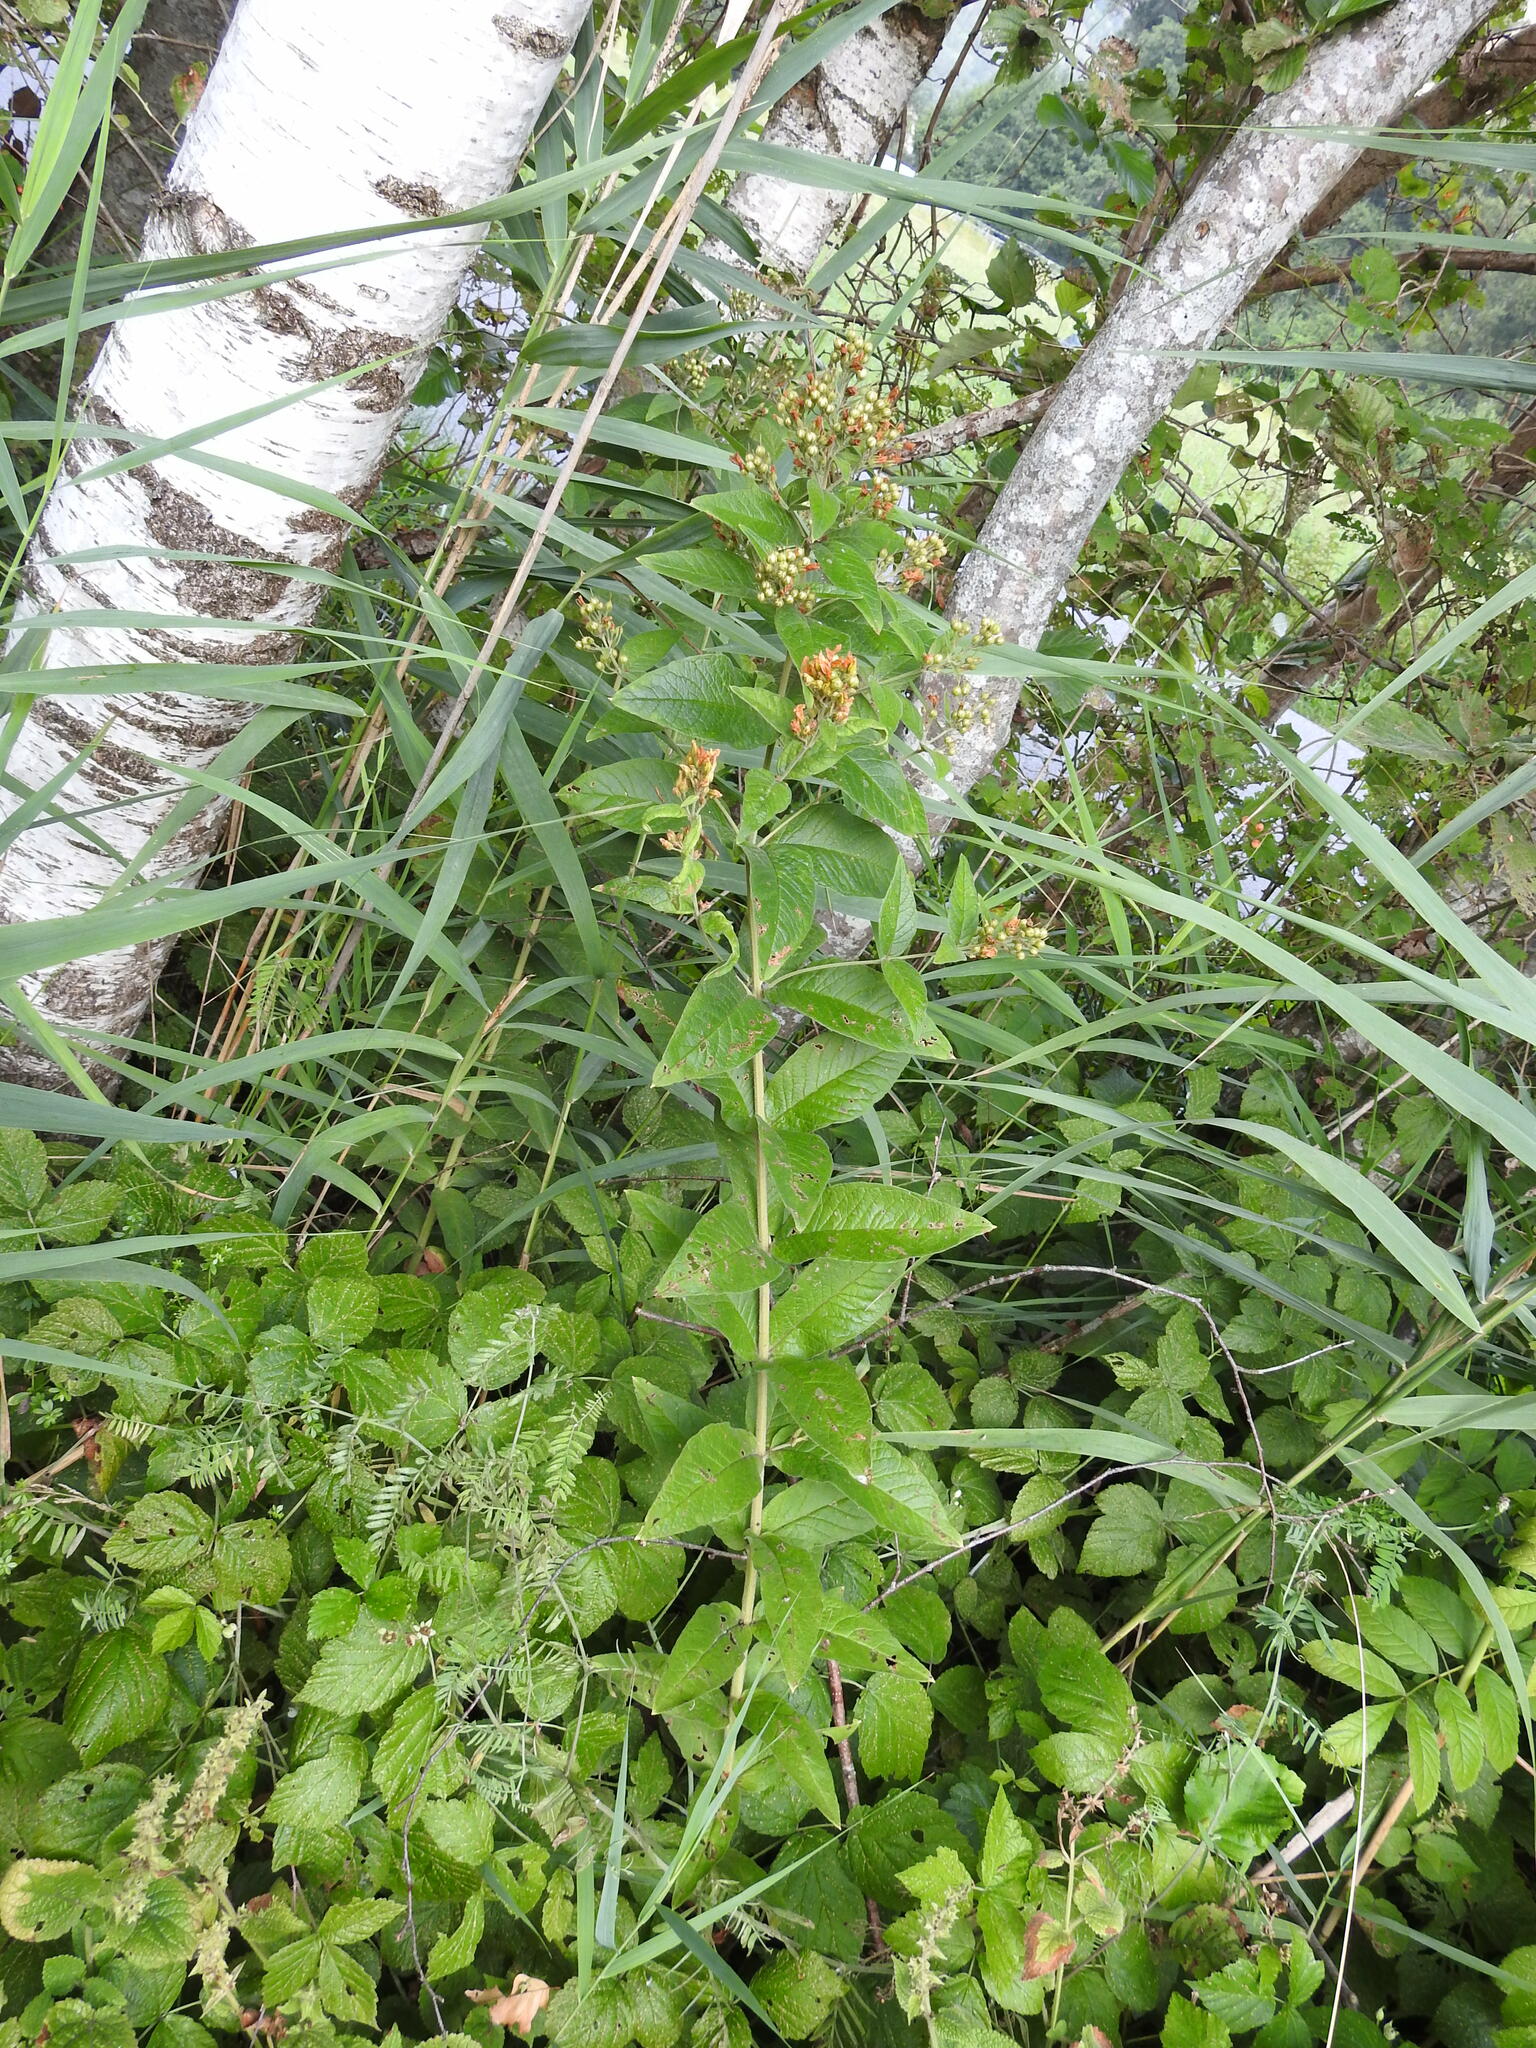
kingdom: Plantae
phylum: Tracheophyta
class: Magnoliopsida
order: Ericales
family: Primulaceae
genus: Lysimachia
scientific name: Lysimachia vulgaris
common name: Yellow loosestrife
